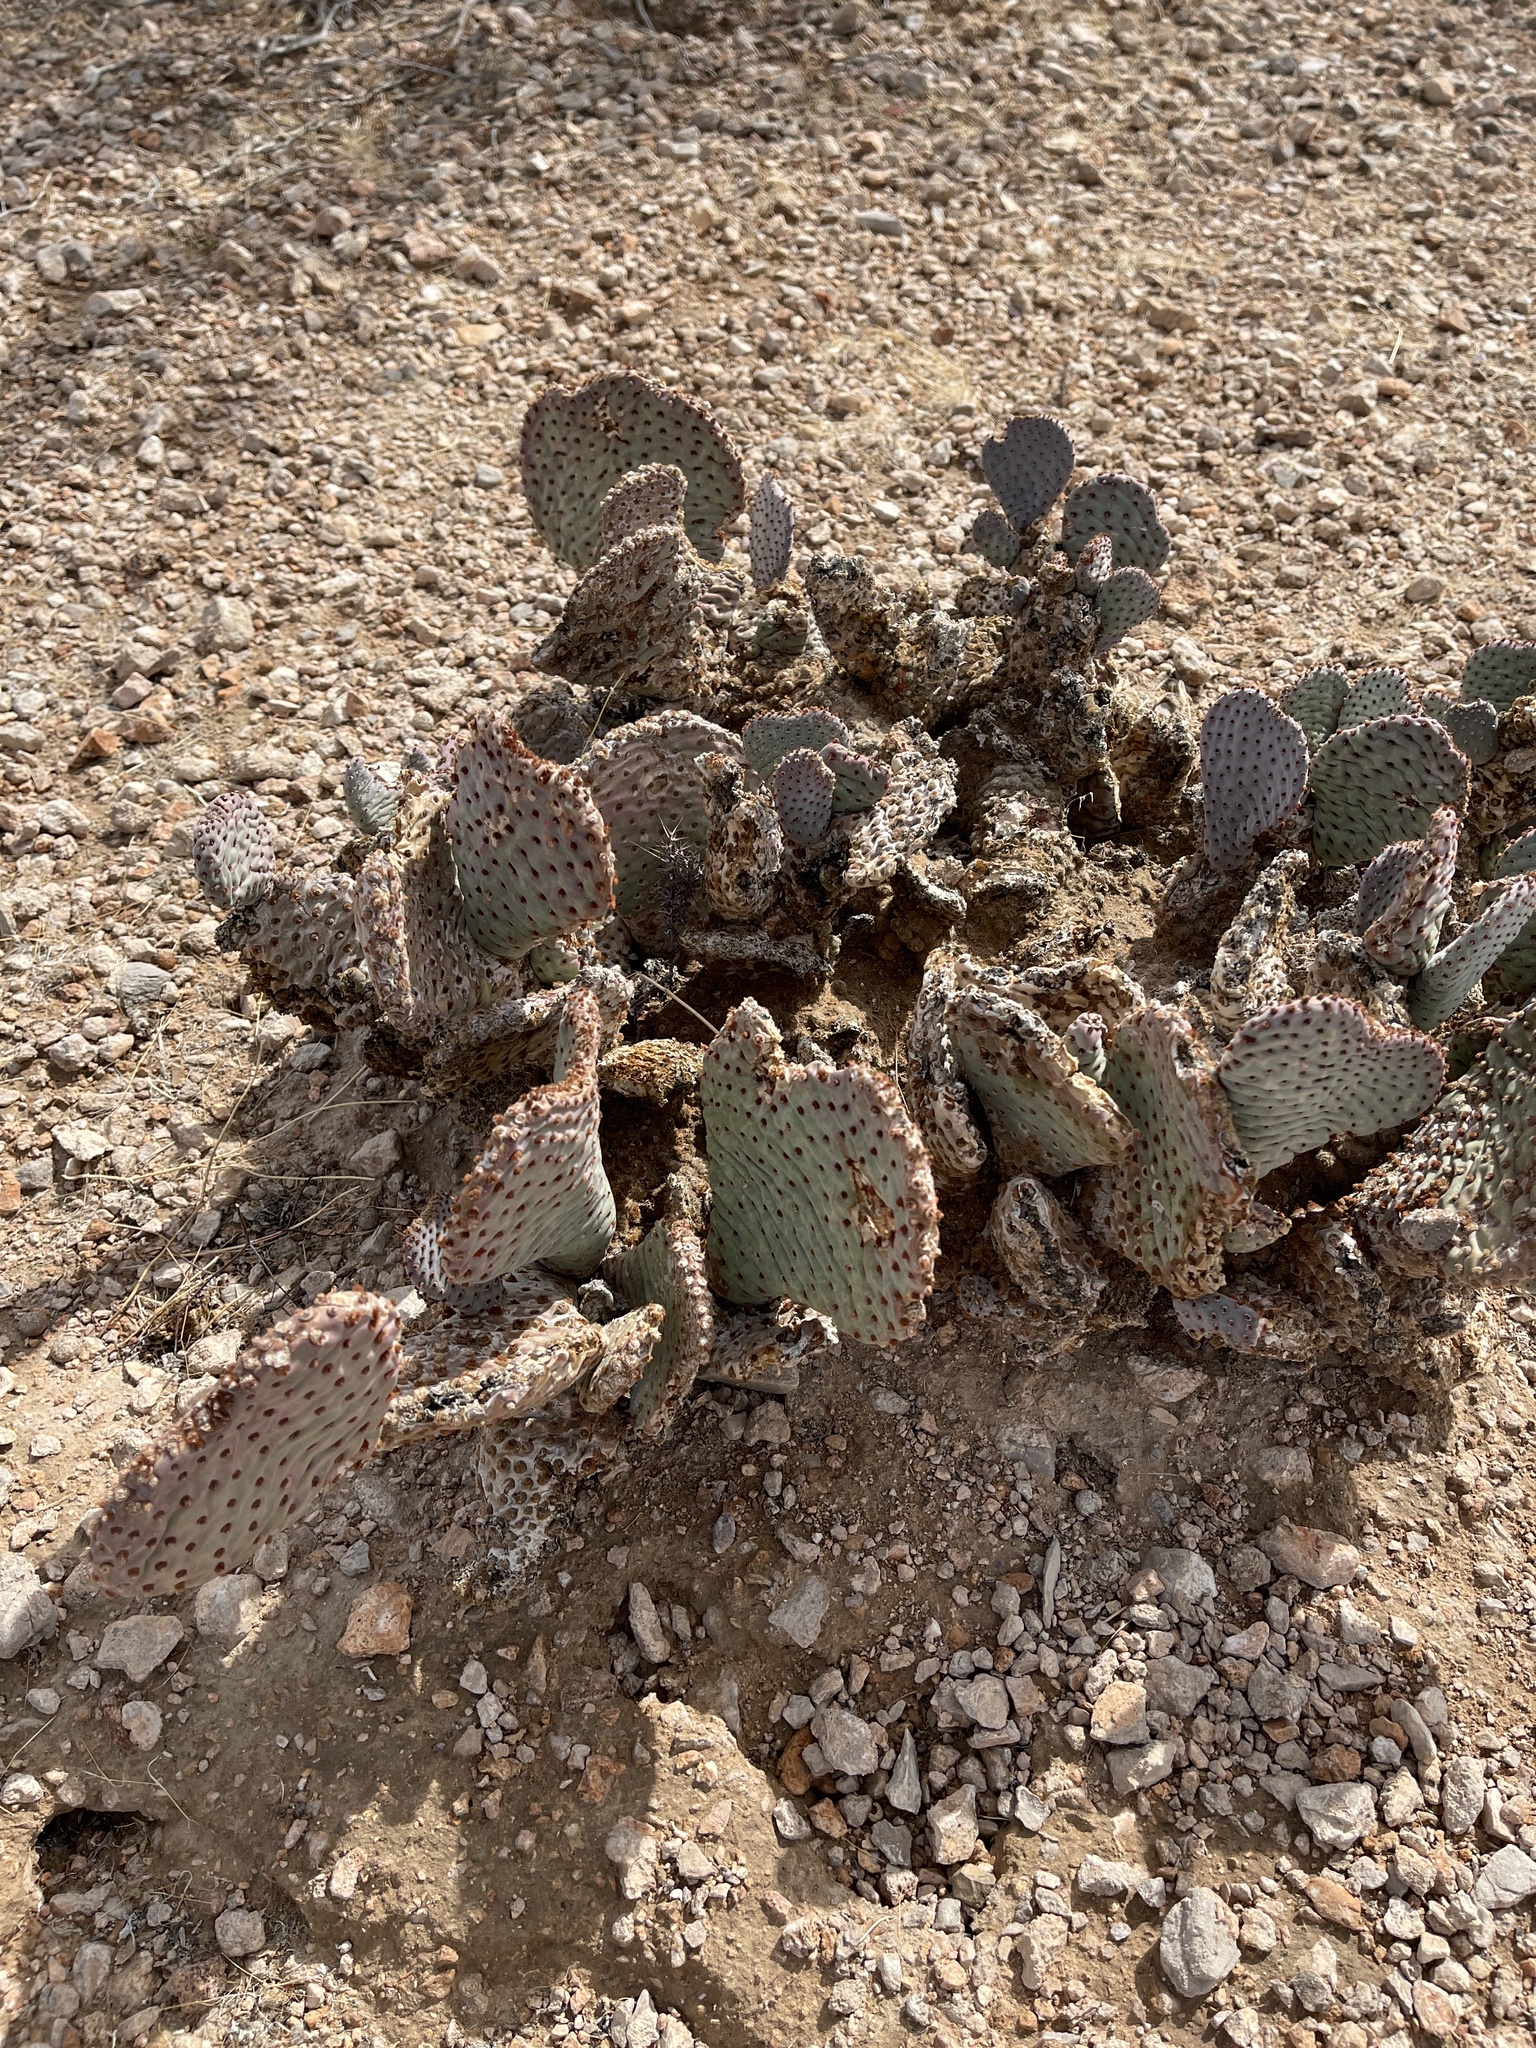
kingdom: Plantae
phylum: Tracheophyta
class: Magnoliopsida
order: Caryophyllales
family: Cactaceae
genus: Opuntia
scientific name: Opuntia basilaris
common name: Beavertail prickly-pear
